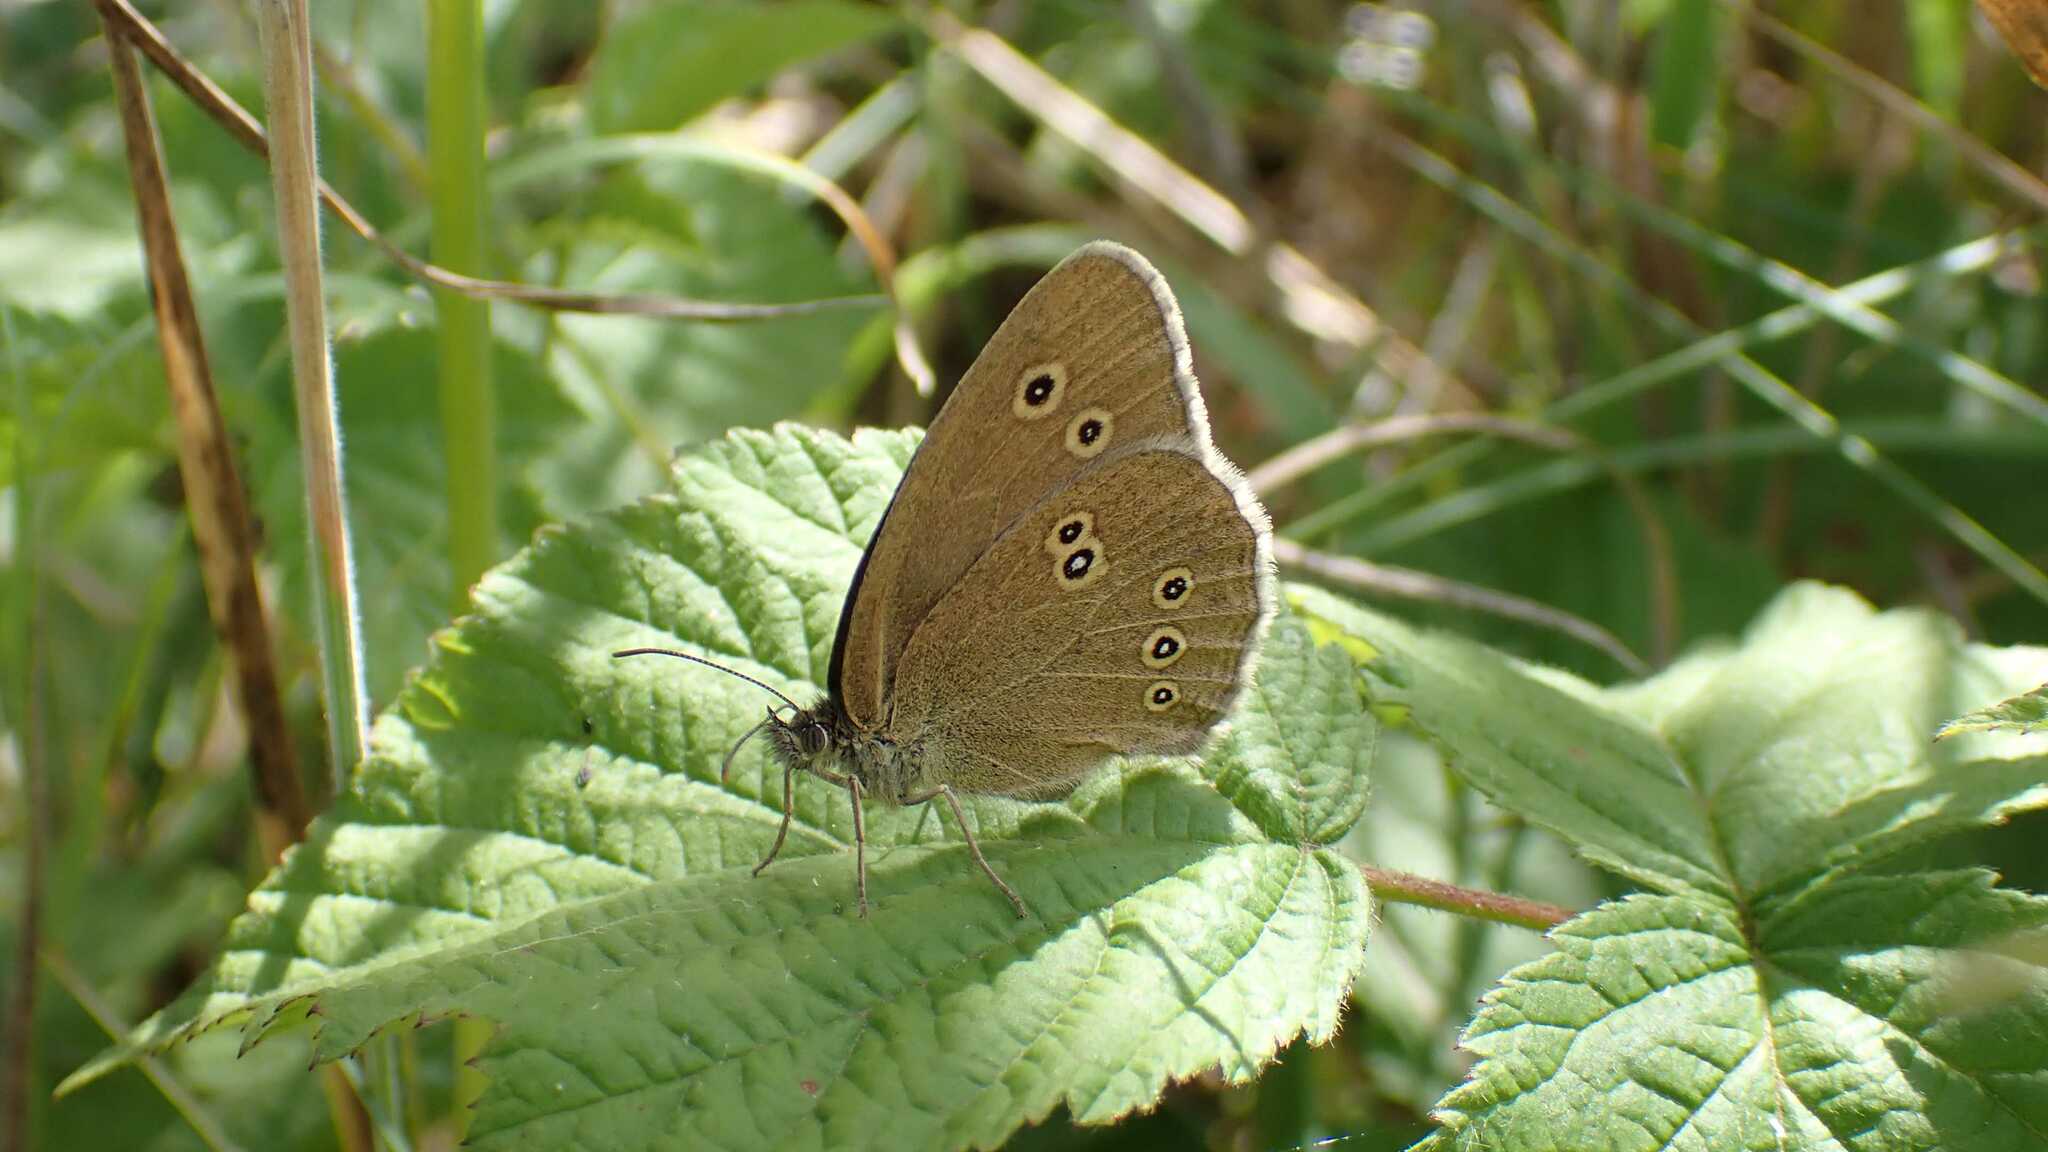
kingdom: Animalia
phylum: Arthropoda
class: Insecta
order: Lepidoptera
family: Nymphalidae
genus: Aphantopus
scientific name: Aphantopus hyperantus
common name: Ringlet
